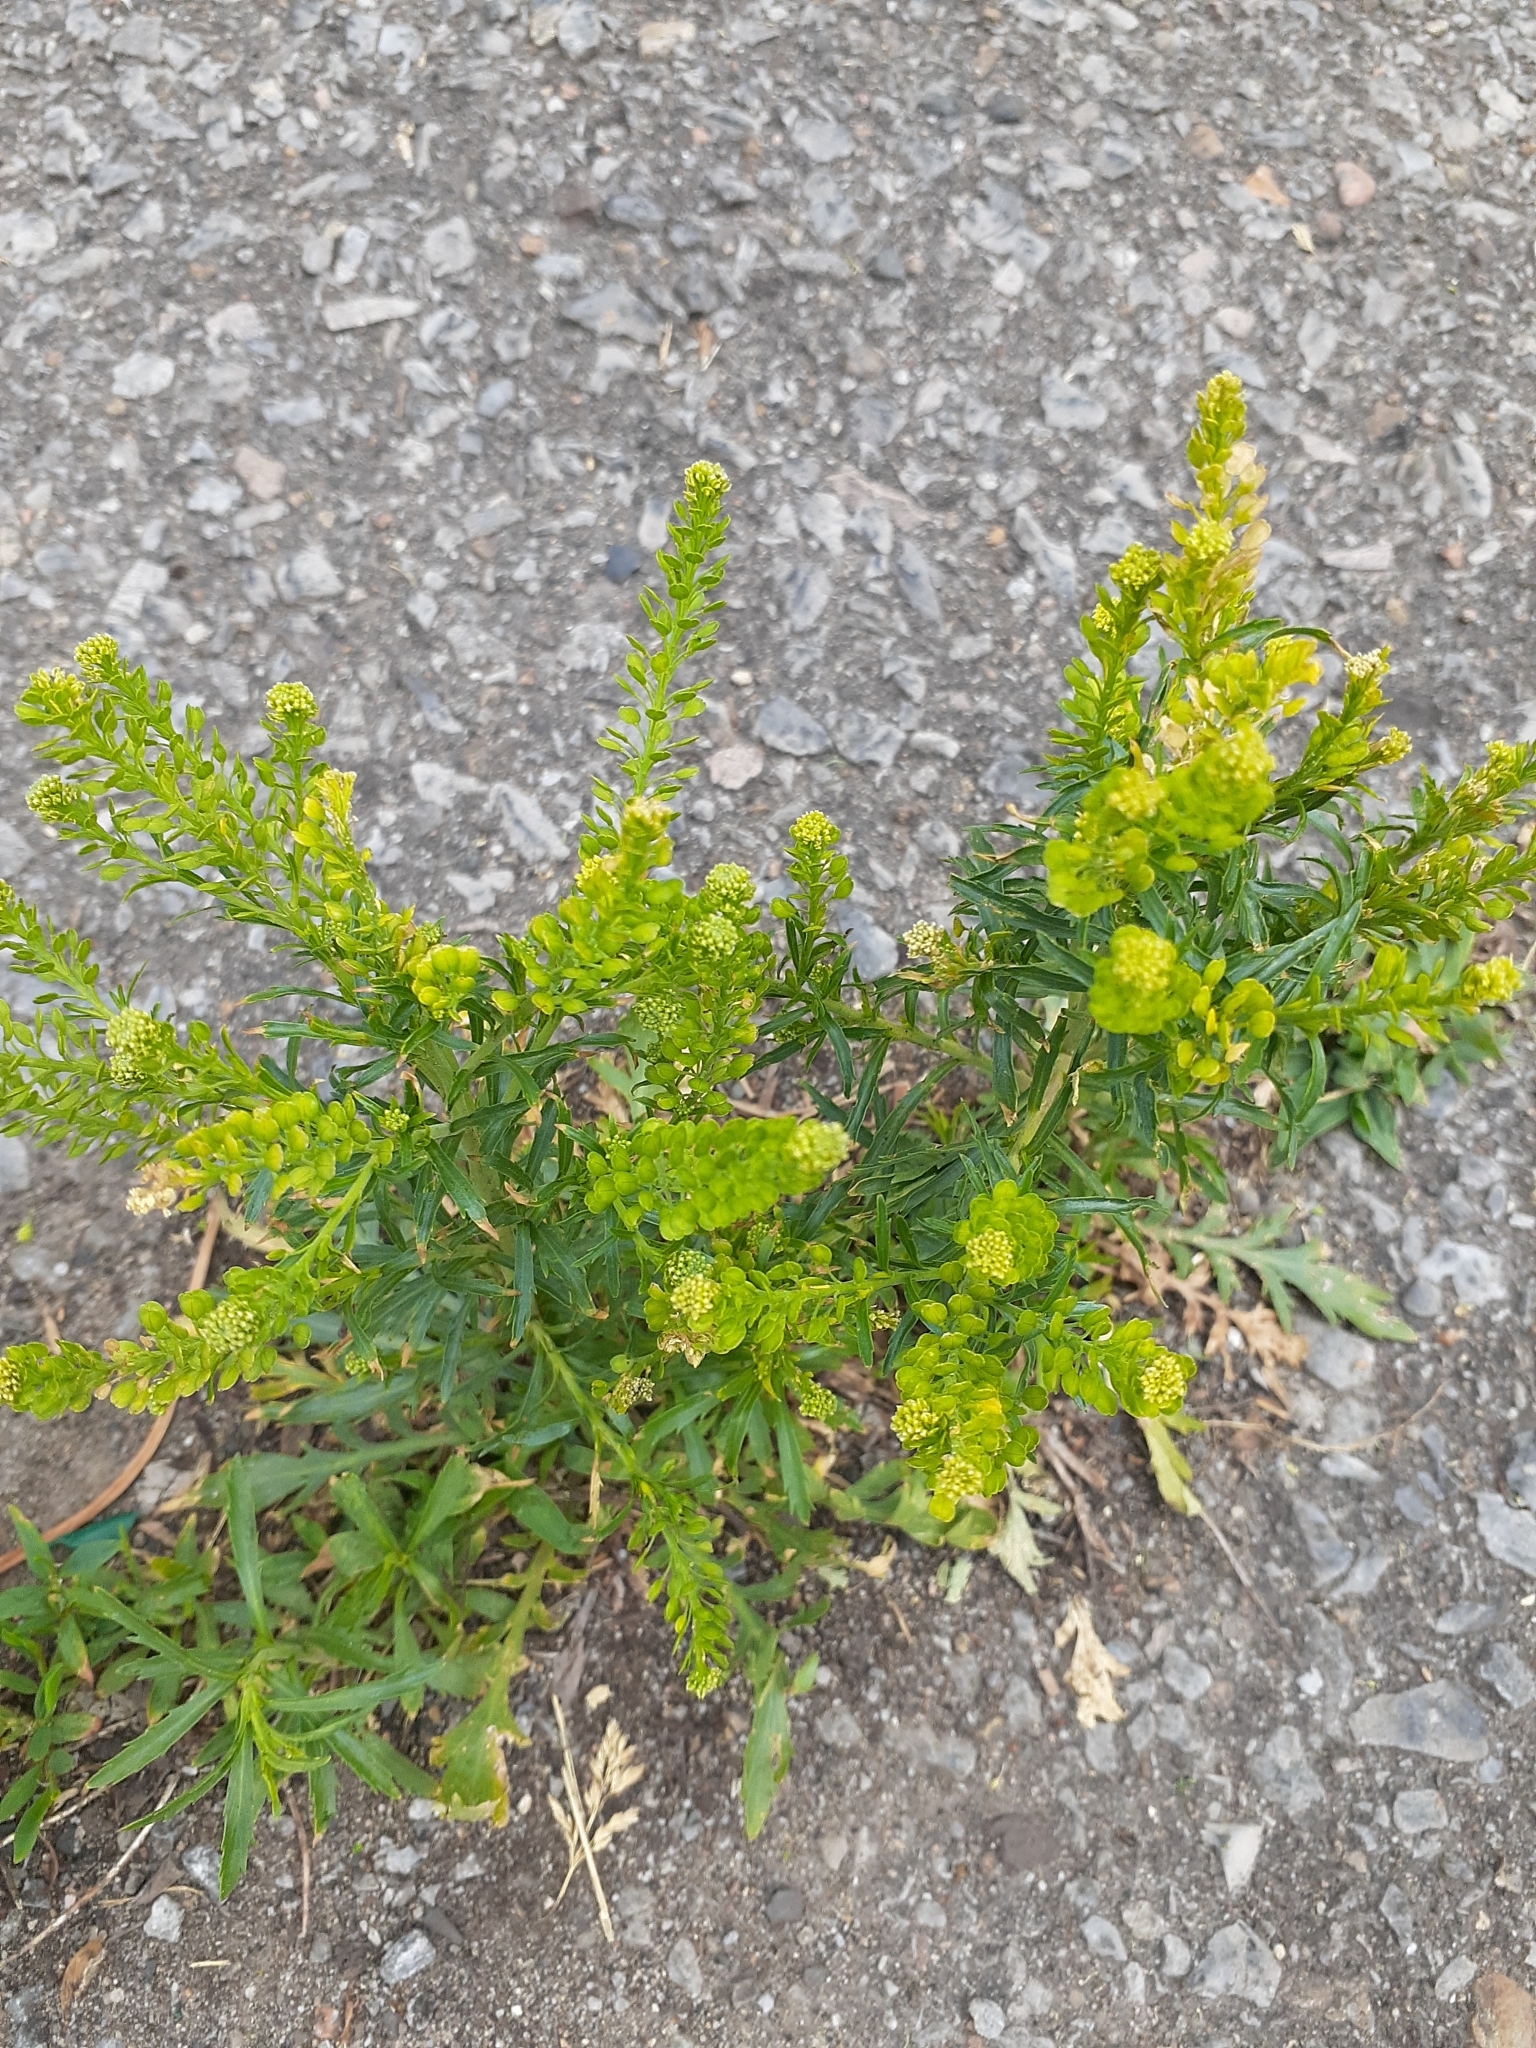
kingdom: Plantae
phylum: Tracheophyta
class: Magnoliopsida
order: Brassicales
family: Brassicaceae
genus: Lepidium
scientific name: Lepidium densiflorum
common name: Miner's pepperwort
